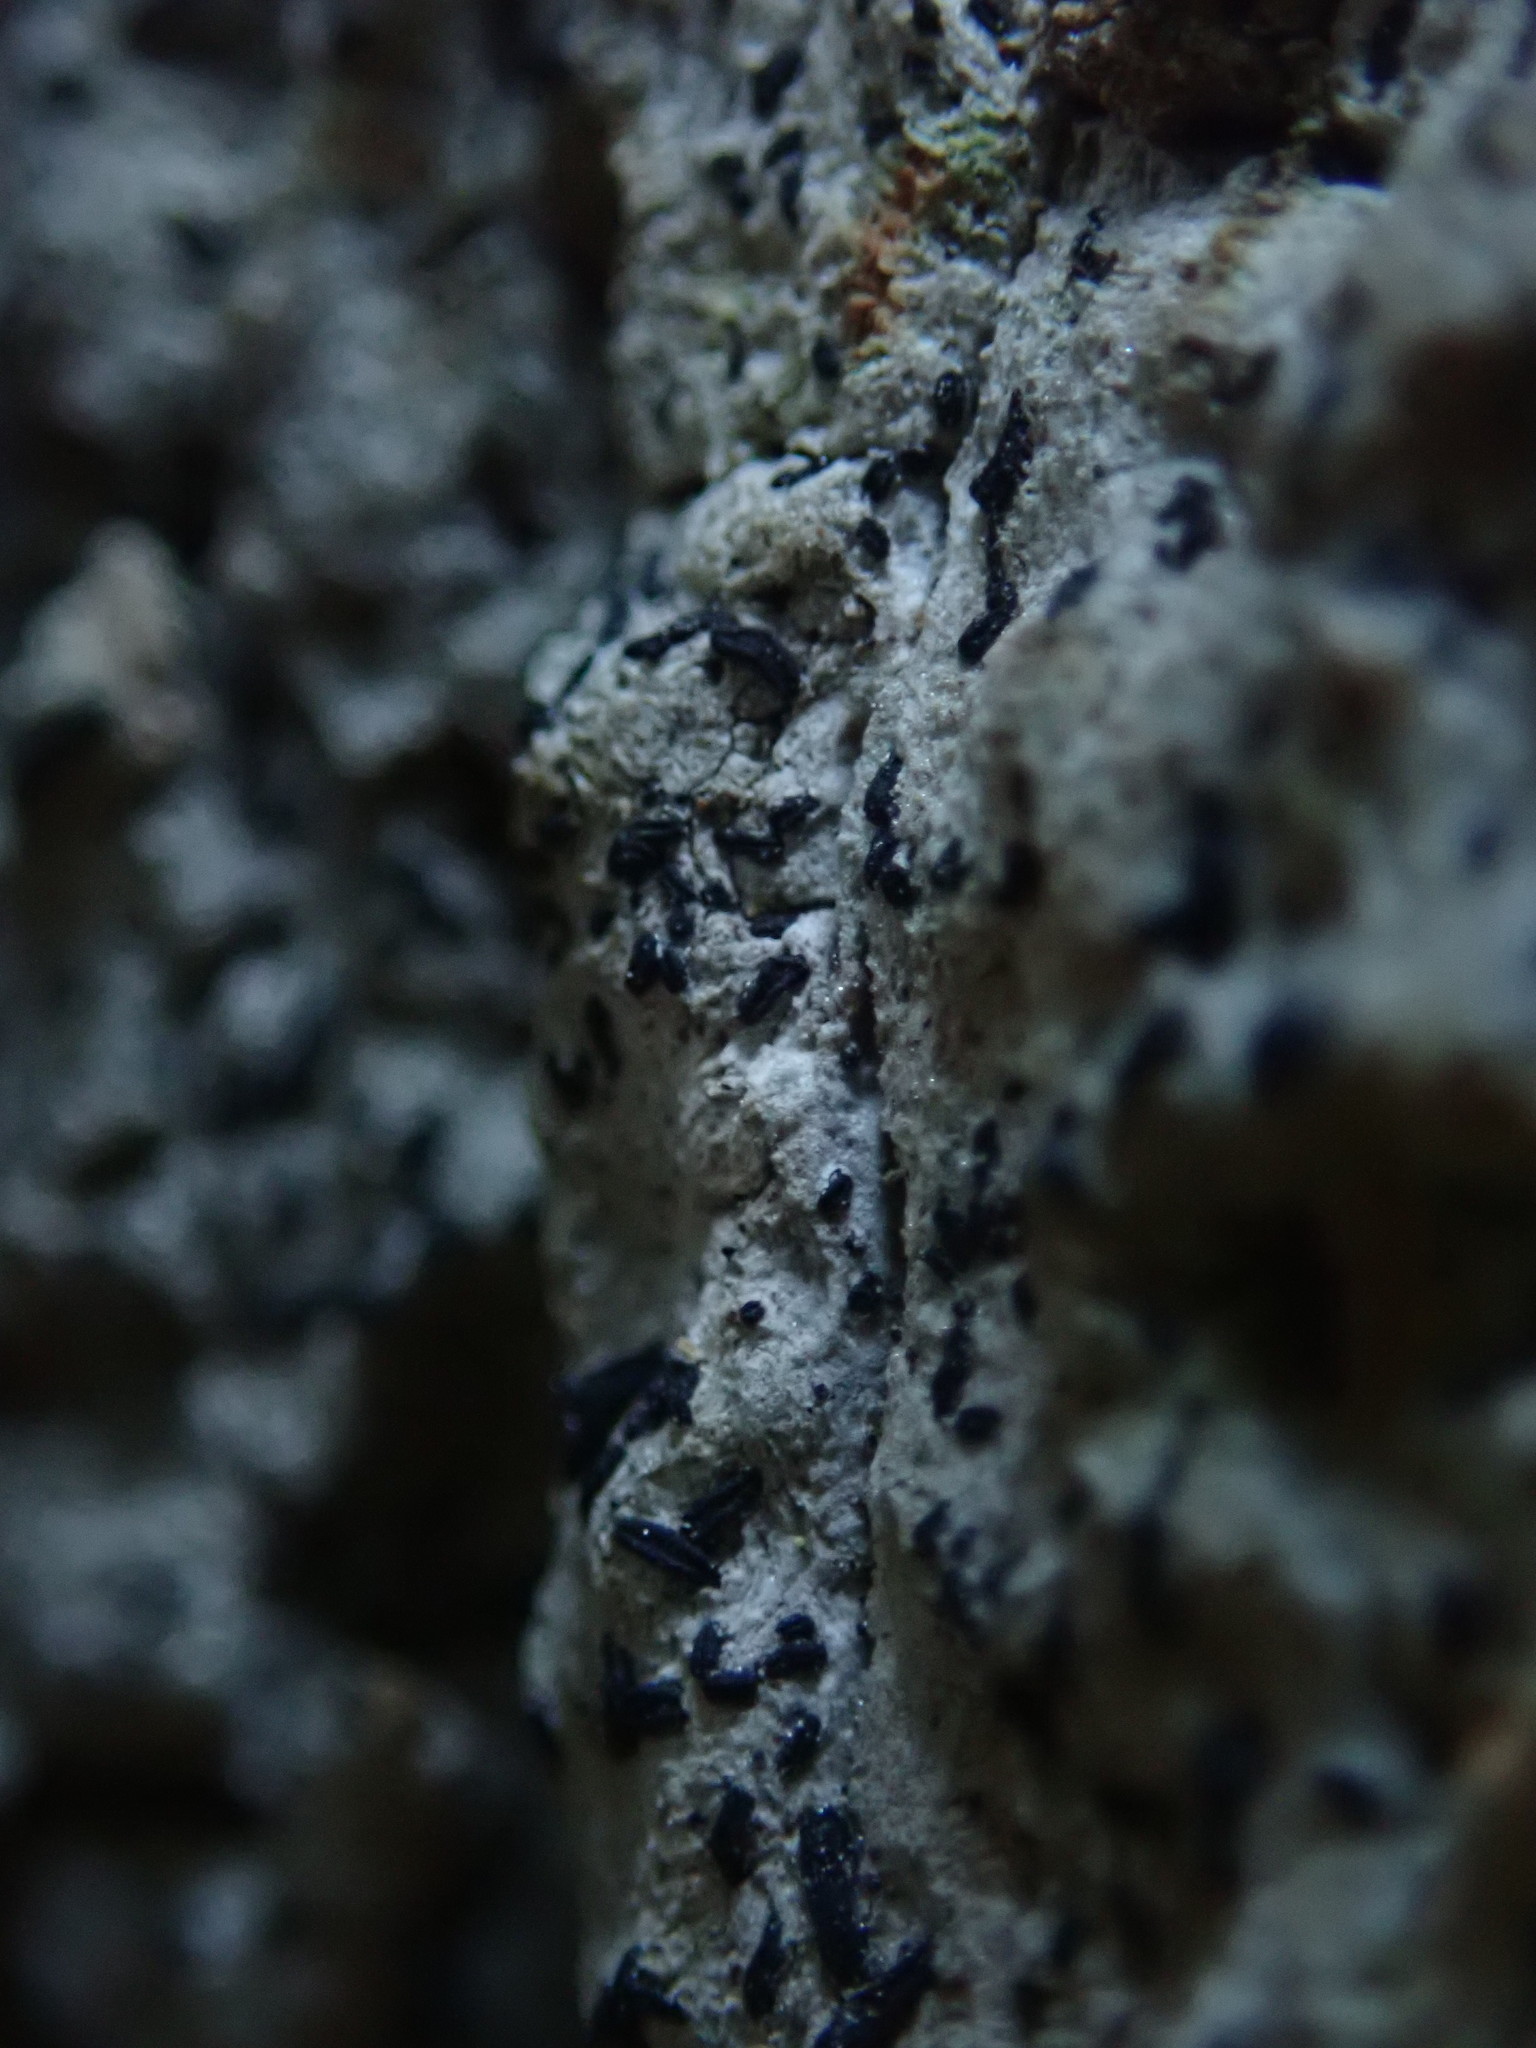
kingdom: Fungi
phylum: Ascomycota
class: Arthoniomycetes
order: Arthoniales
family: Lecanographaceae
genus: Alyxoria
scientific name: Alyxoria varia
